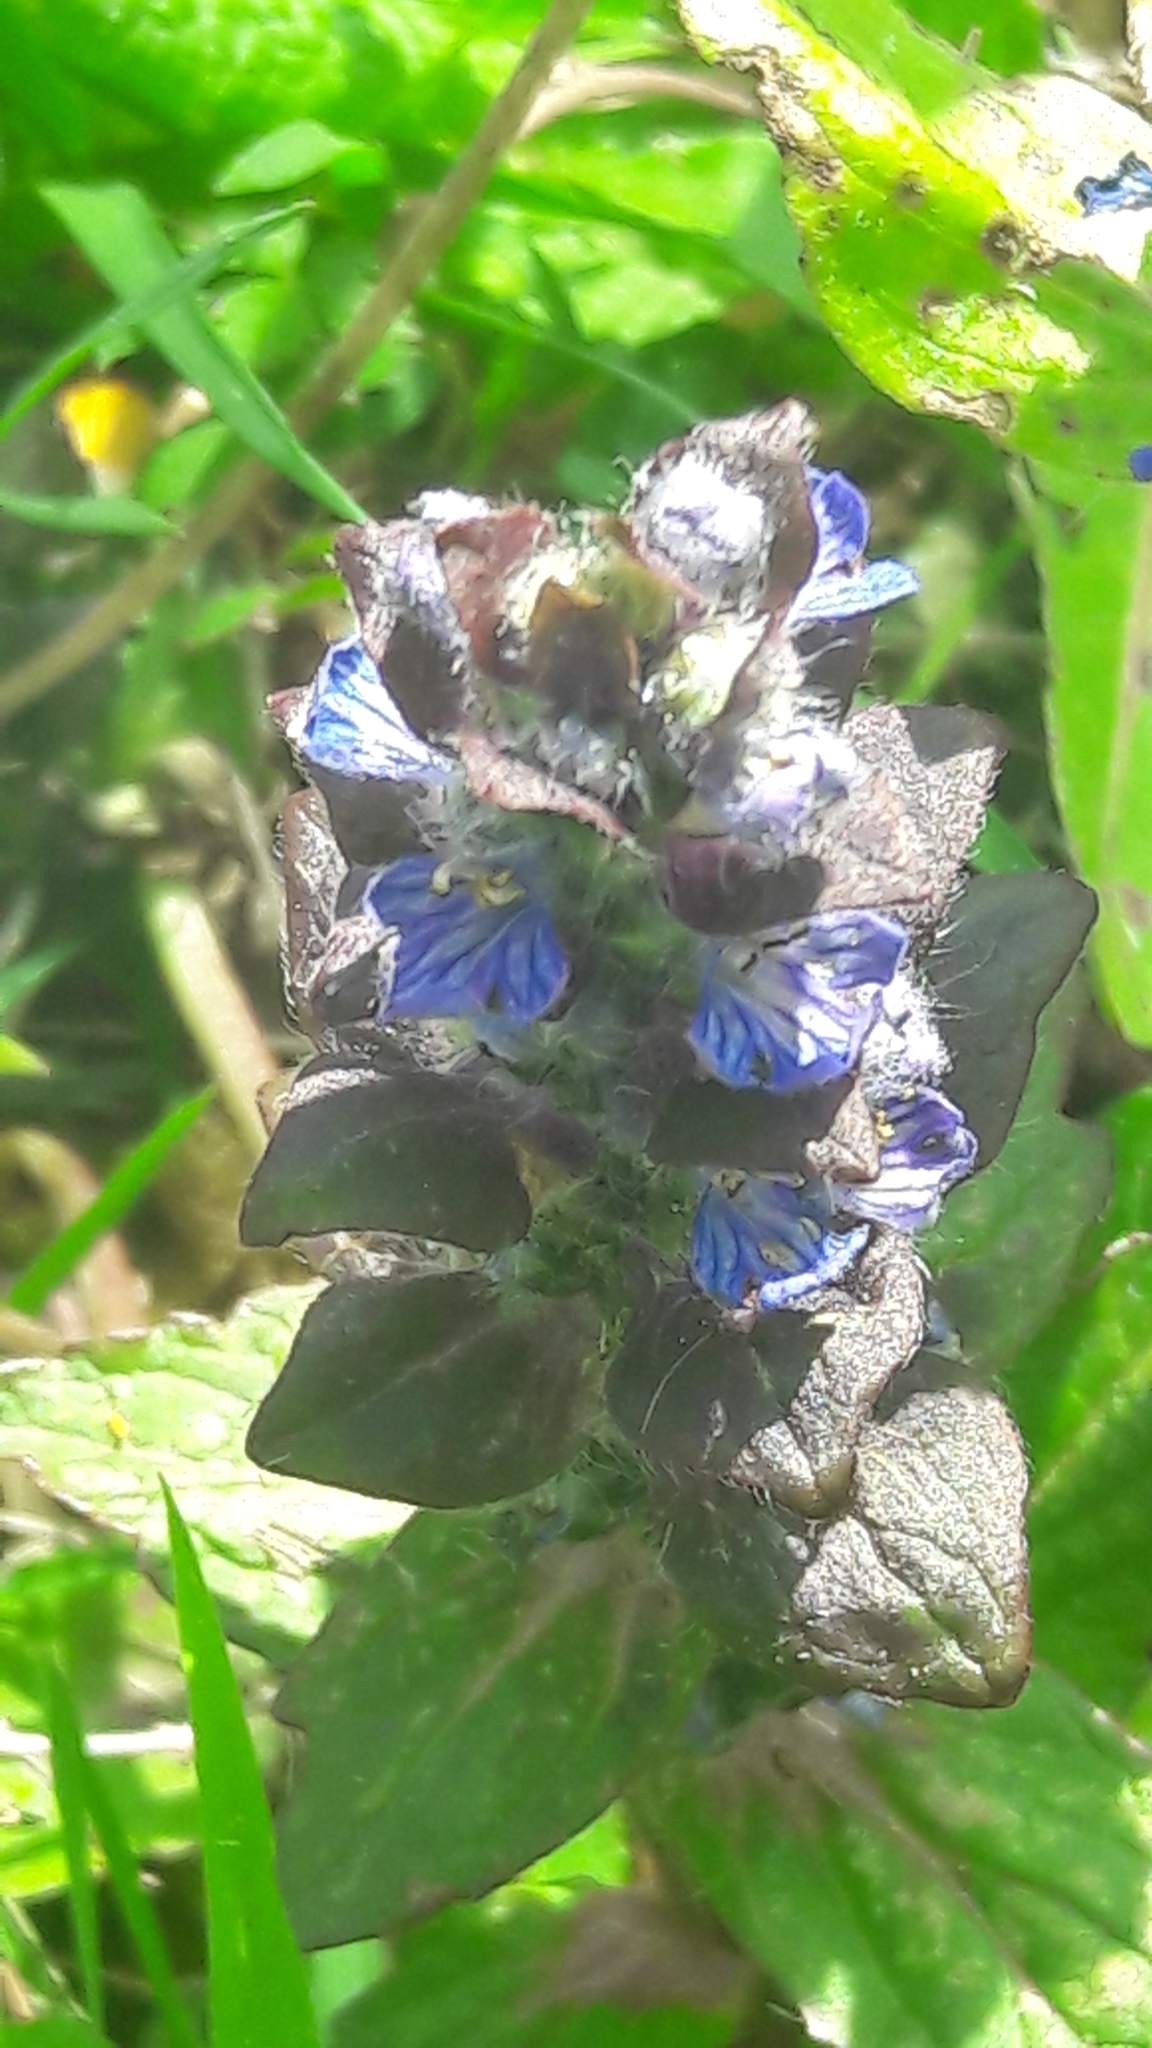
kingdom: Plantae
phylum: Tracheophyta
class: Magnoliopsida
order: Lamiales
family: Lamiaceae
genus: Ajuga
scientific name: Ajuga reptans
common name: Bugle
